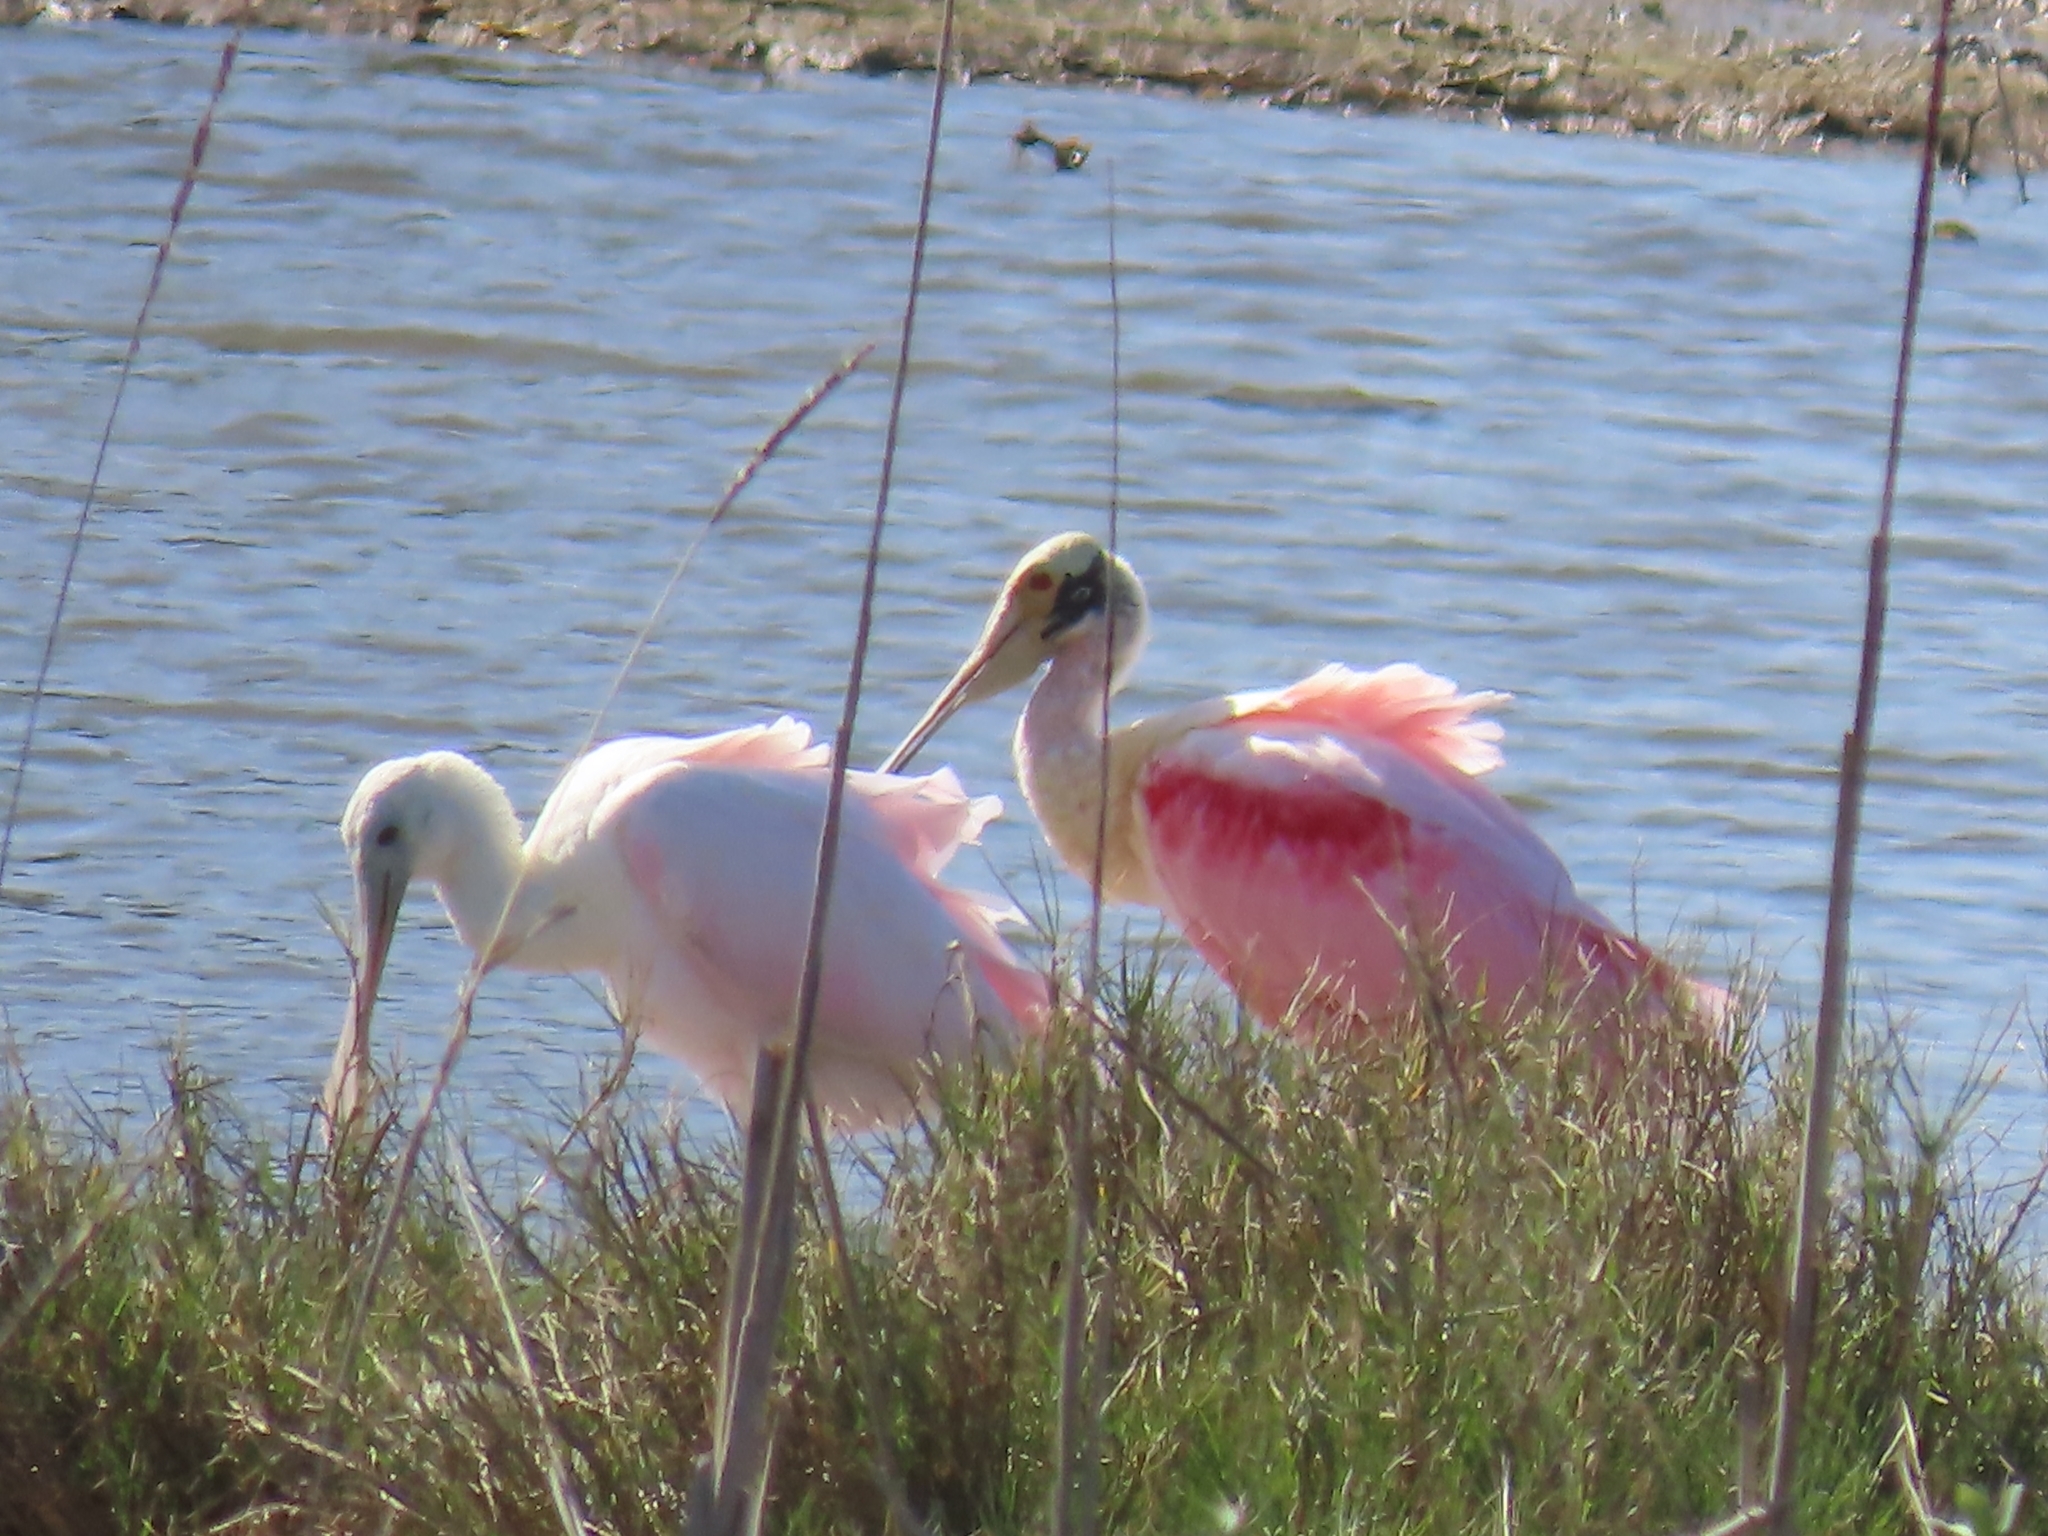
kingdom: Animalia
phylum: Chordata
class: Aves
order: Pelecaniformes
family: Threskiornithidae
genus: Platalea
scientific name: Platalea ajaja
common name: Roseate spoonbill
